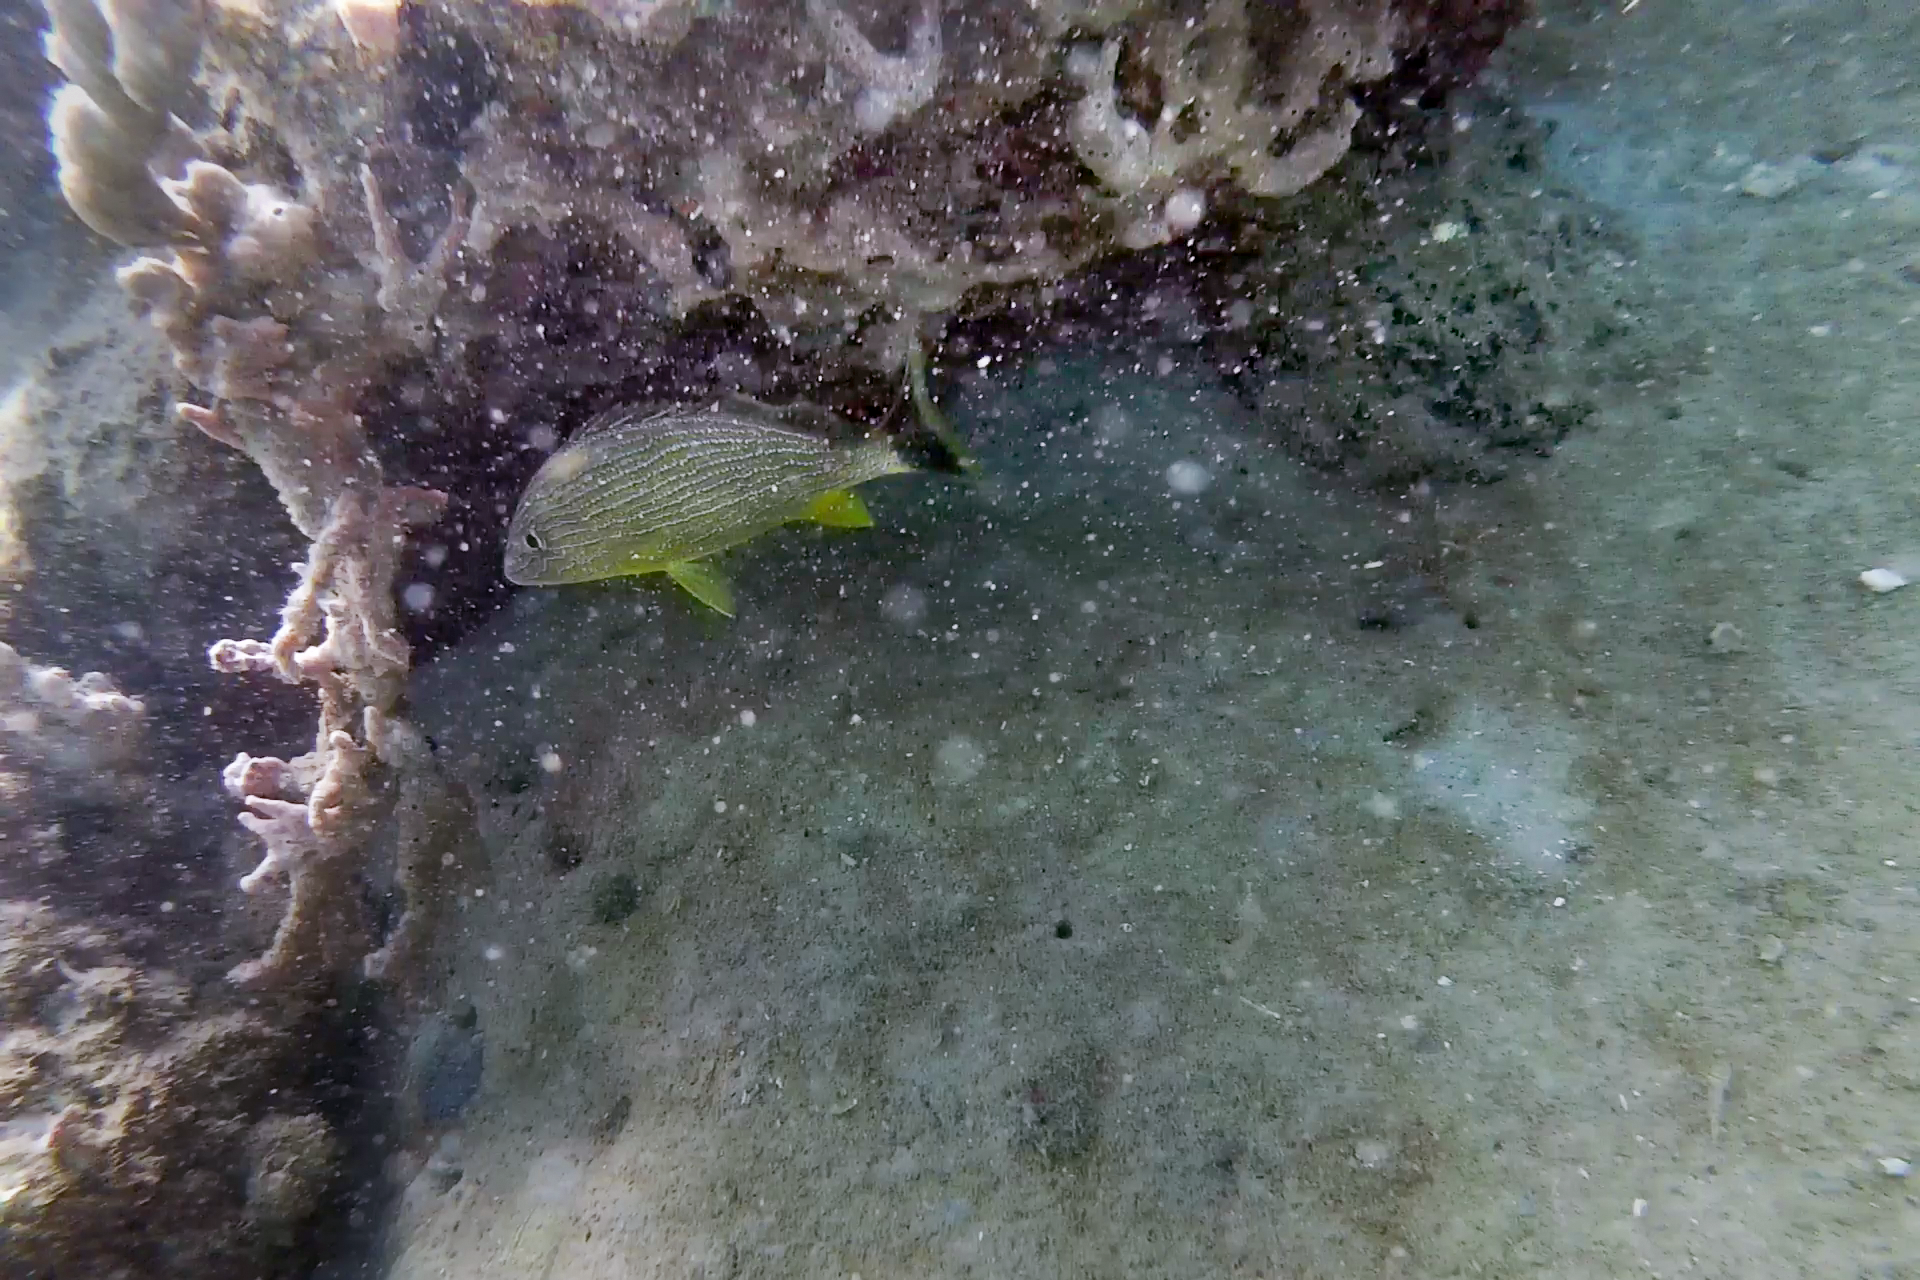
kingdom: Animalia
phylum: Chordata
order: Perciformes
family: Haemulidae
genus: Haemulon
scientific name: Haemulon sciurus
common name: Bluestriped grunt
